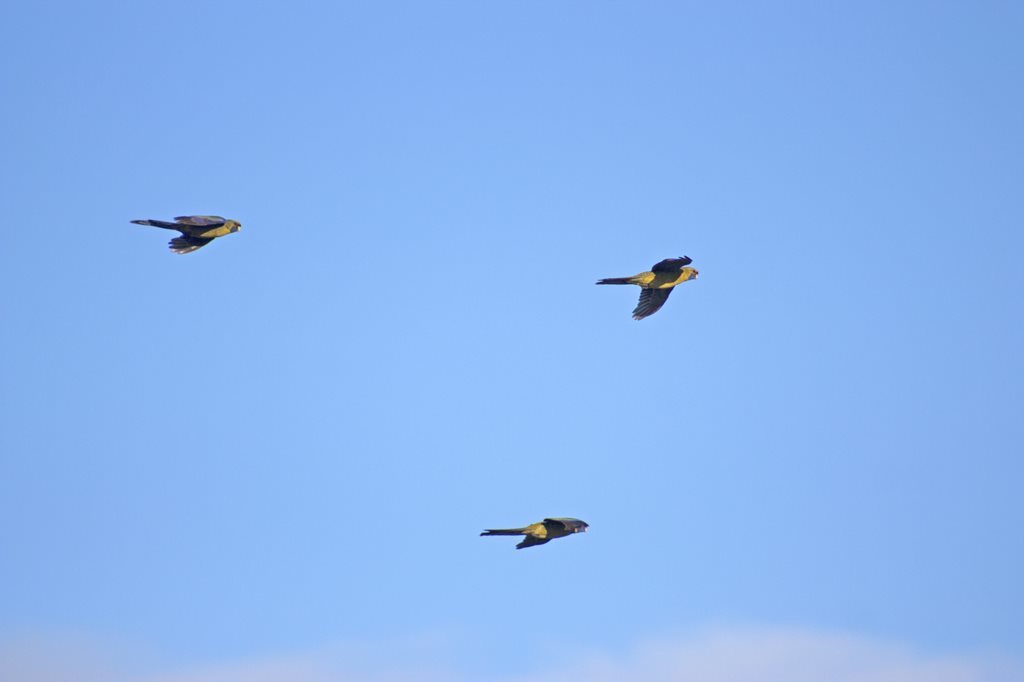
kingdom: Animalia
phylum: Chordata
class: Aves
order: Psittaciformes
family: Psittacidae
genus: Platycercus
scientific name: Platycercus caledonicus
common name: Green rosella
